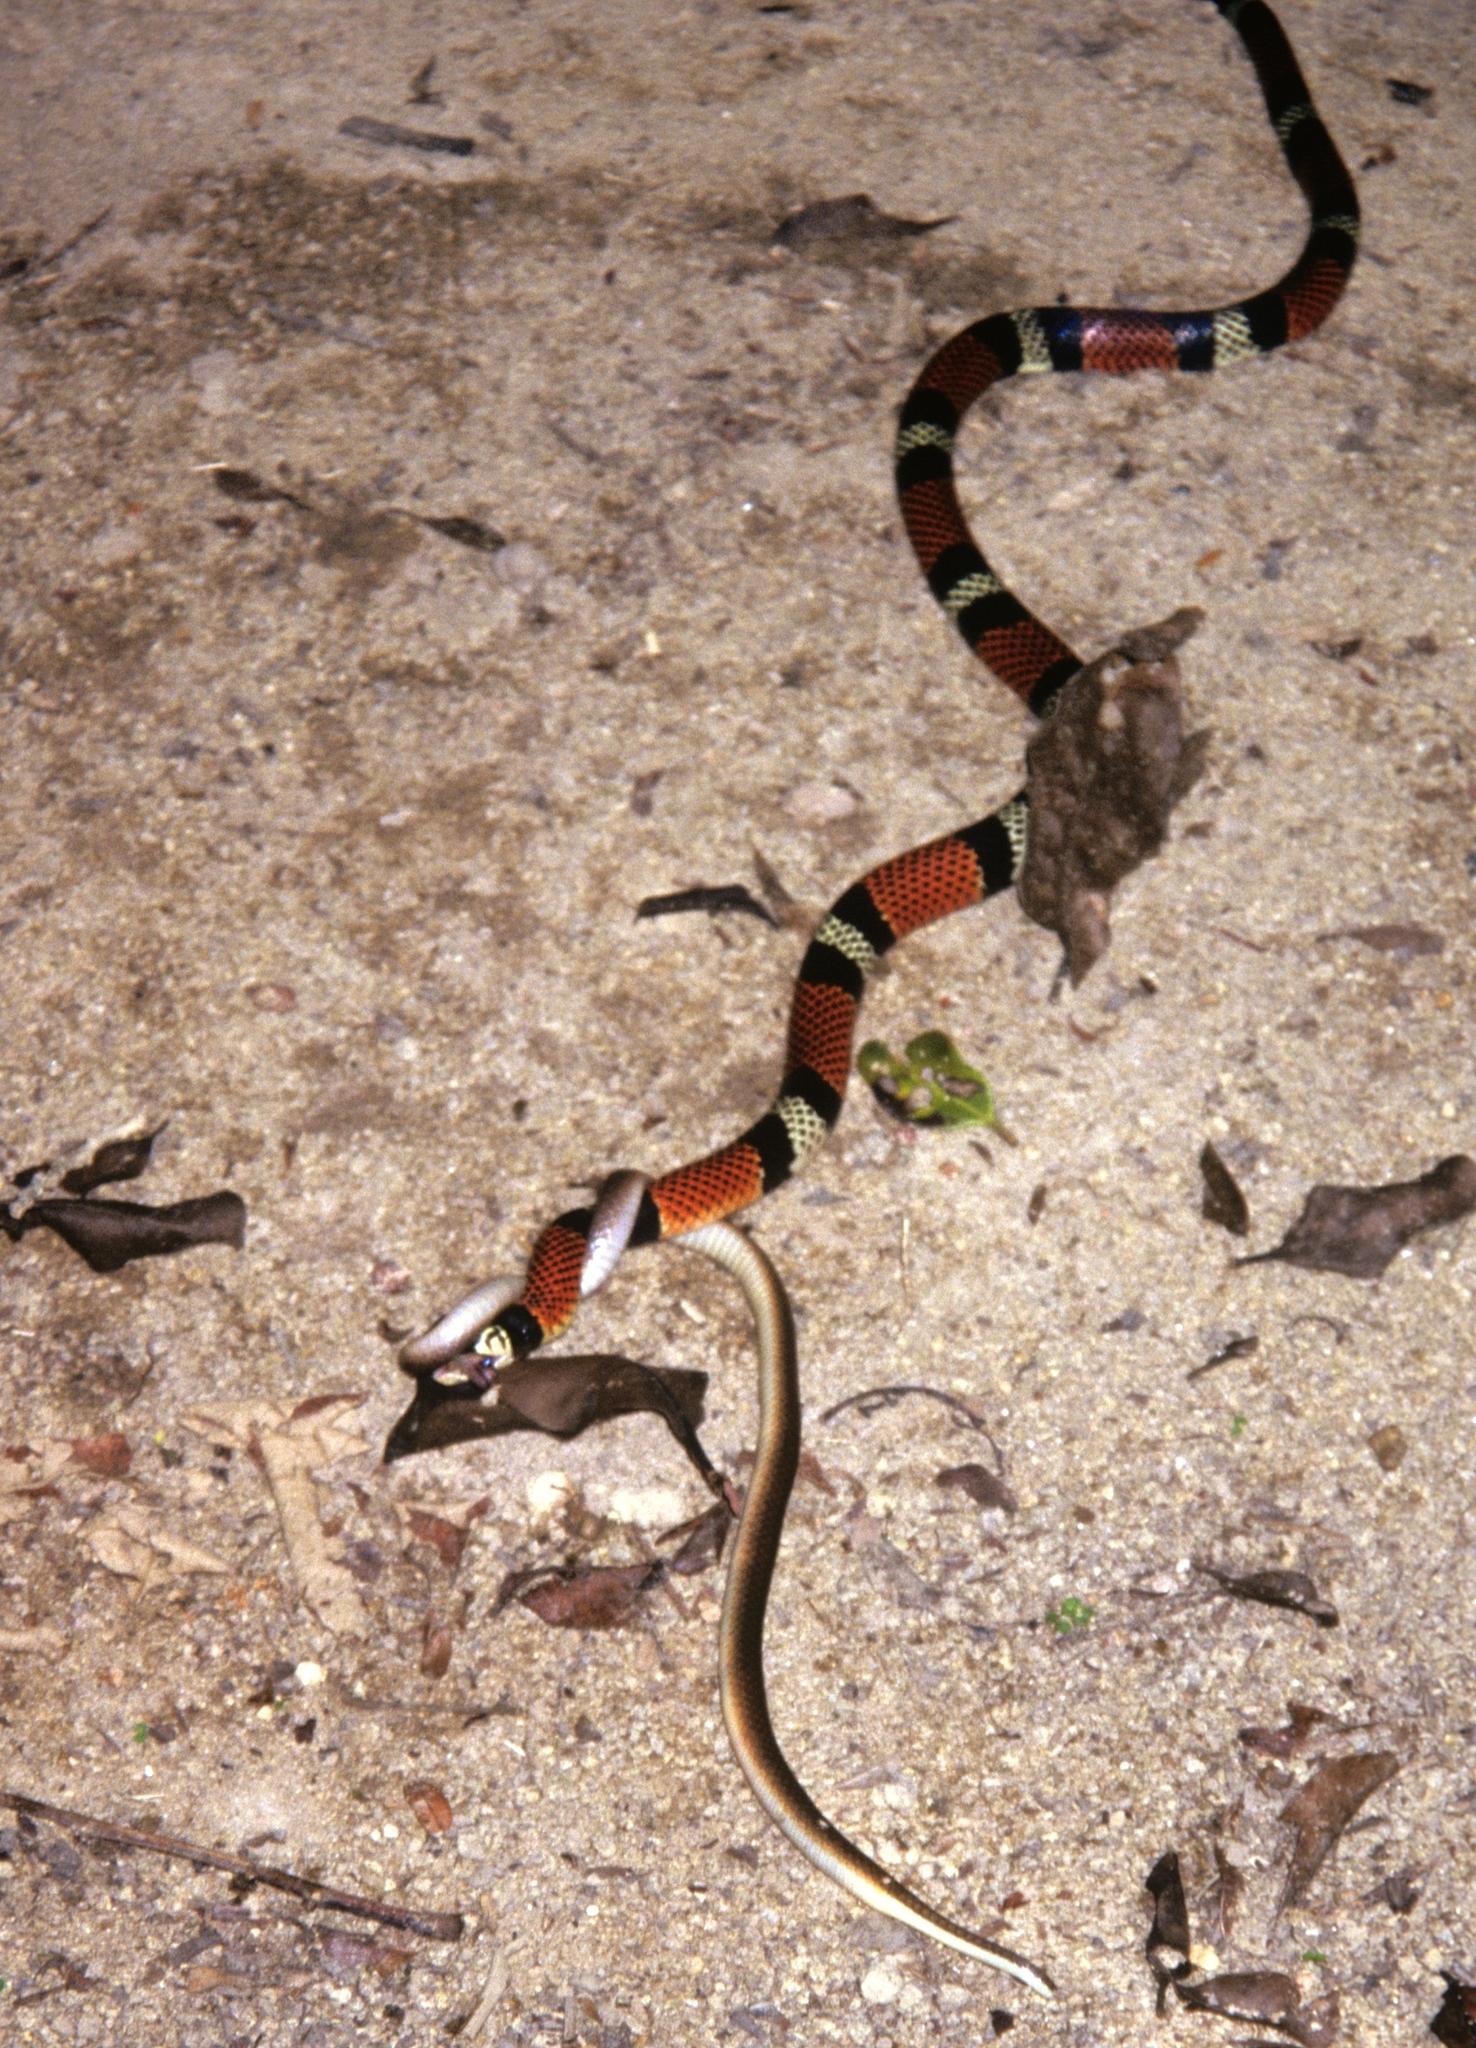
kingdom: Animalia
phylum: Chordata
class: Squamata
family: Colubridae
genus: Erythrolamprus
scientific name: Erythrolamprus aesculapii
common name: Aesculapian false coral snake
